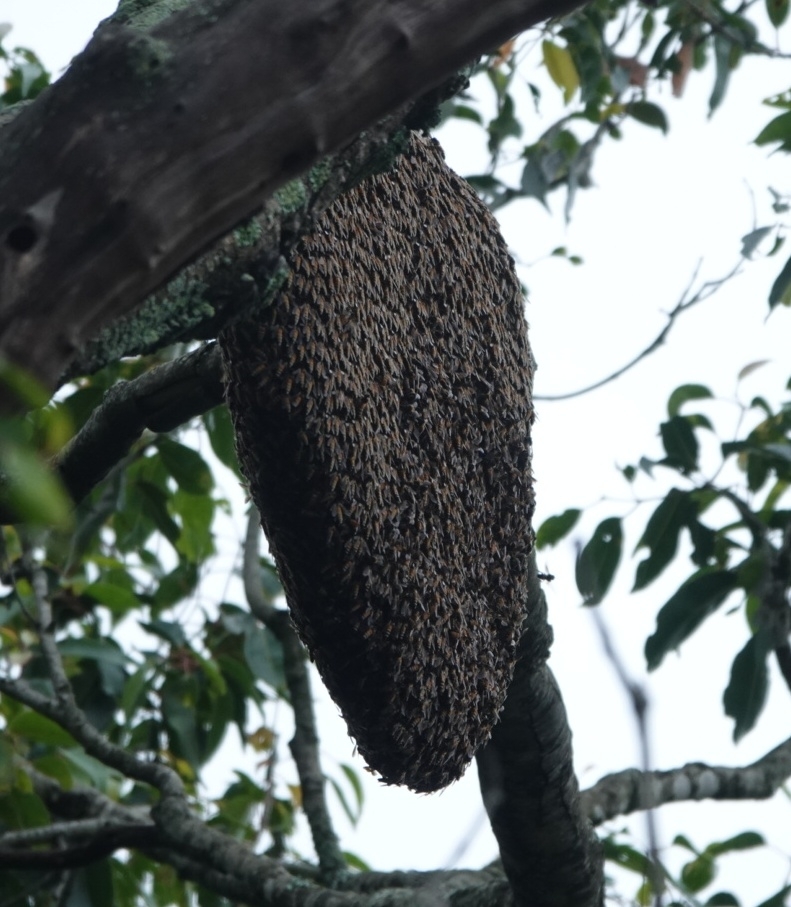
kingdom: Animalia
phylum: Arthropoda
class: Insecta
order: Hymenoptera
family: Apidae
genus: Apis
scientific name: Apis dorsata
